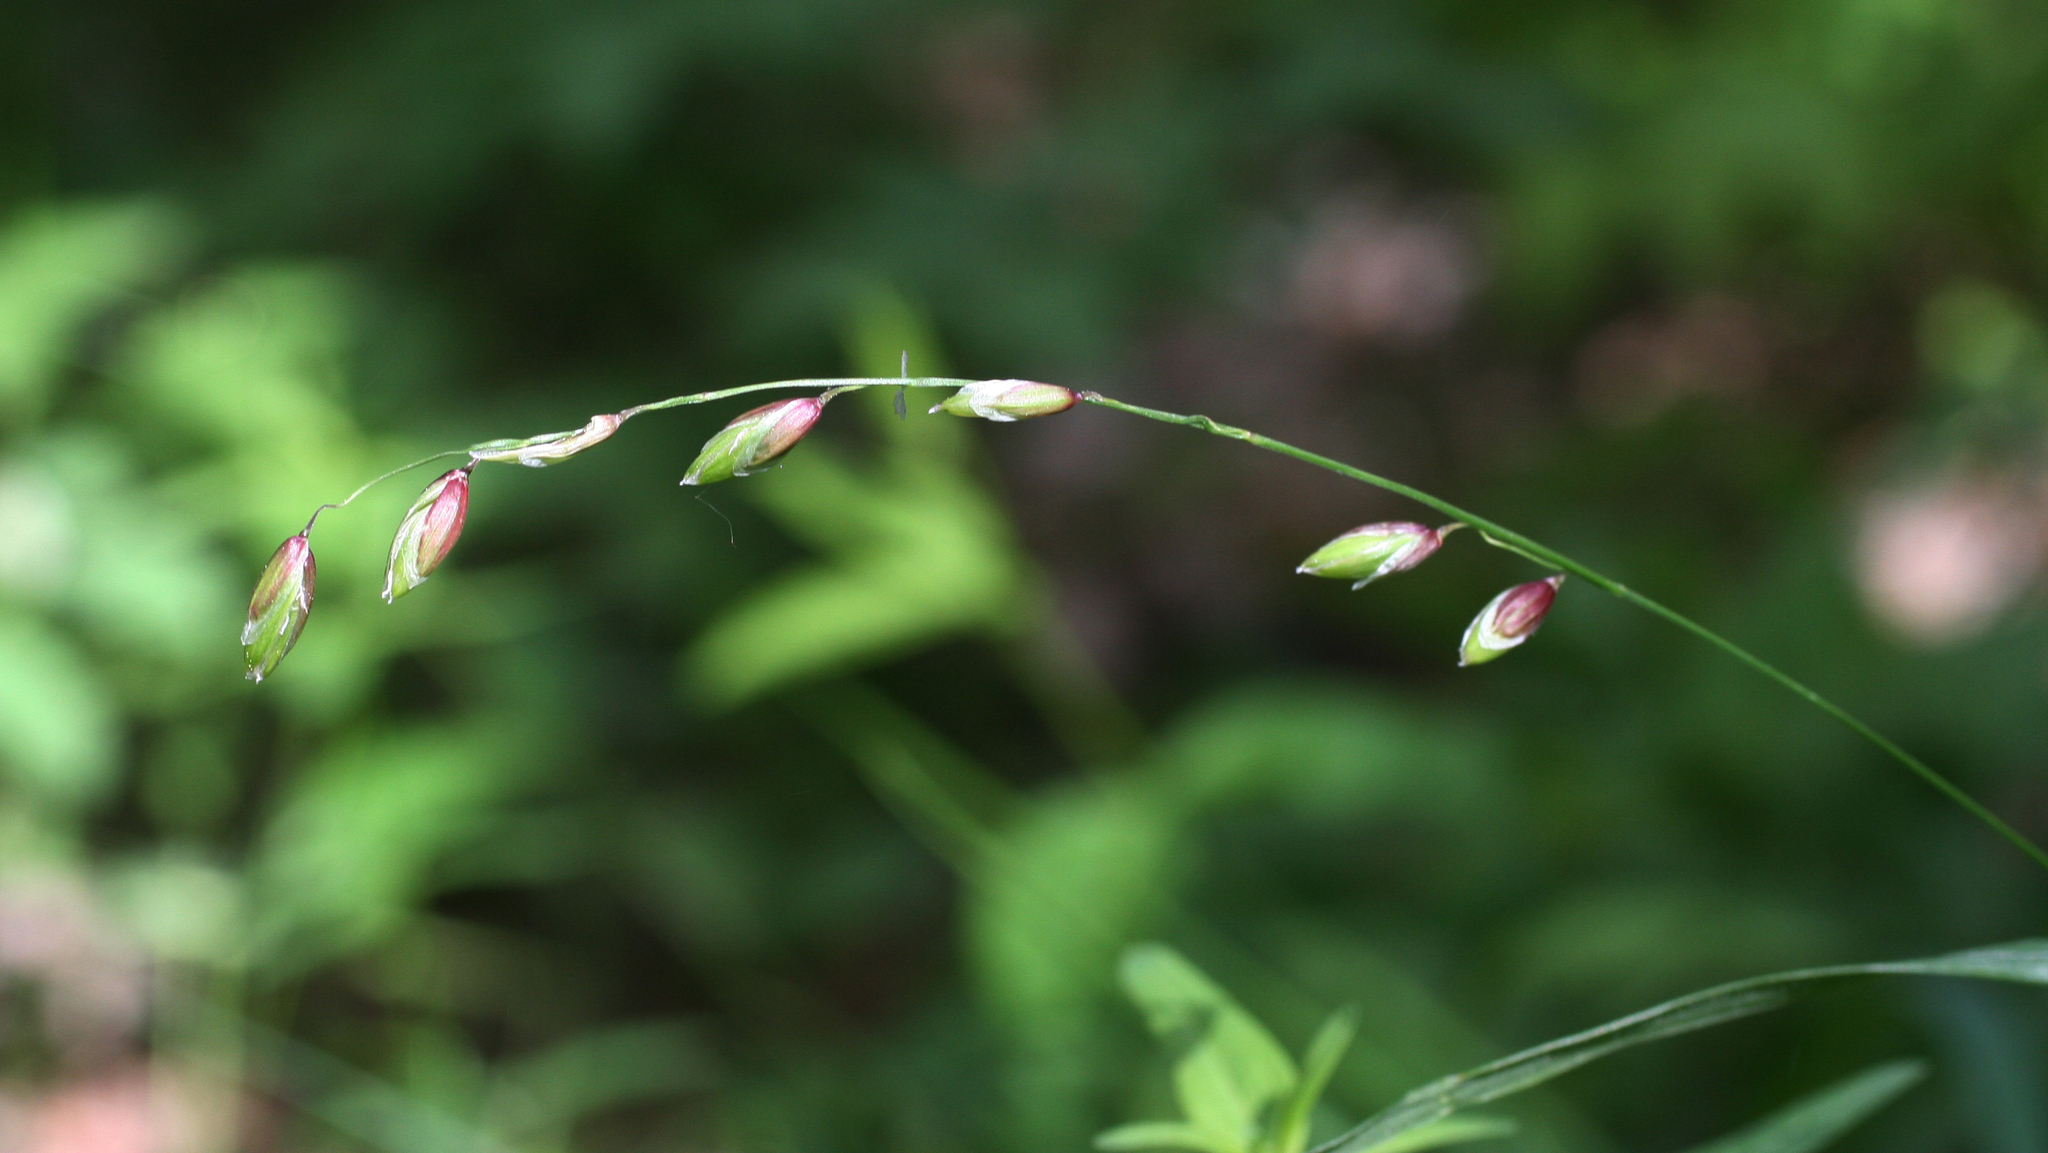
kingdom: Plantae
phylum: Tracheophyta
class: Liliopsida
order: Poales
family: Poaceae
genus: Melica
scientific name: Melica nutans
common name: Mountain melick
